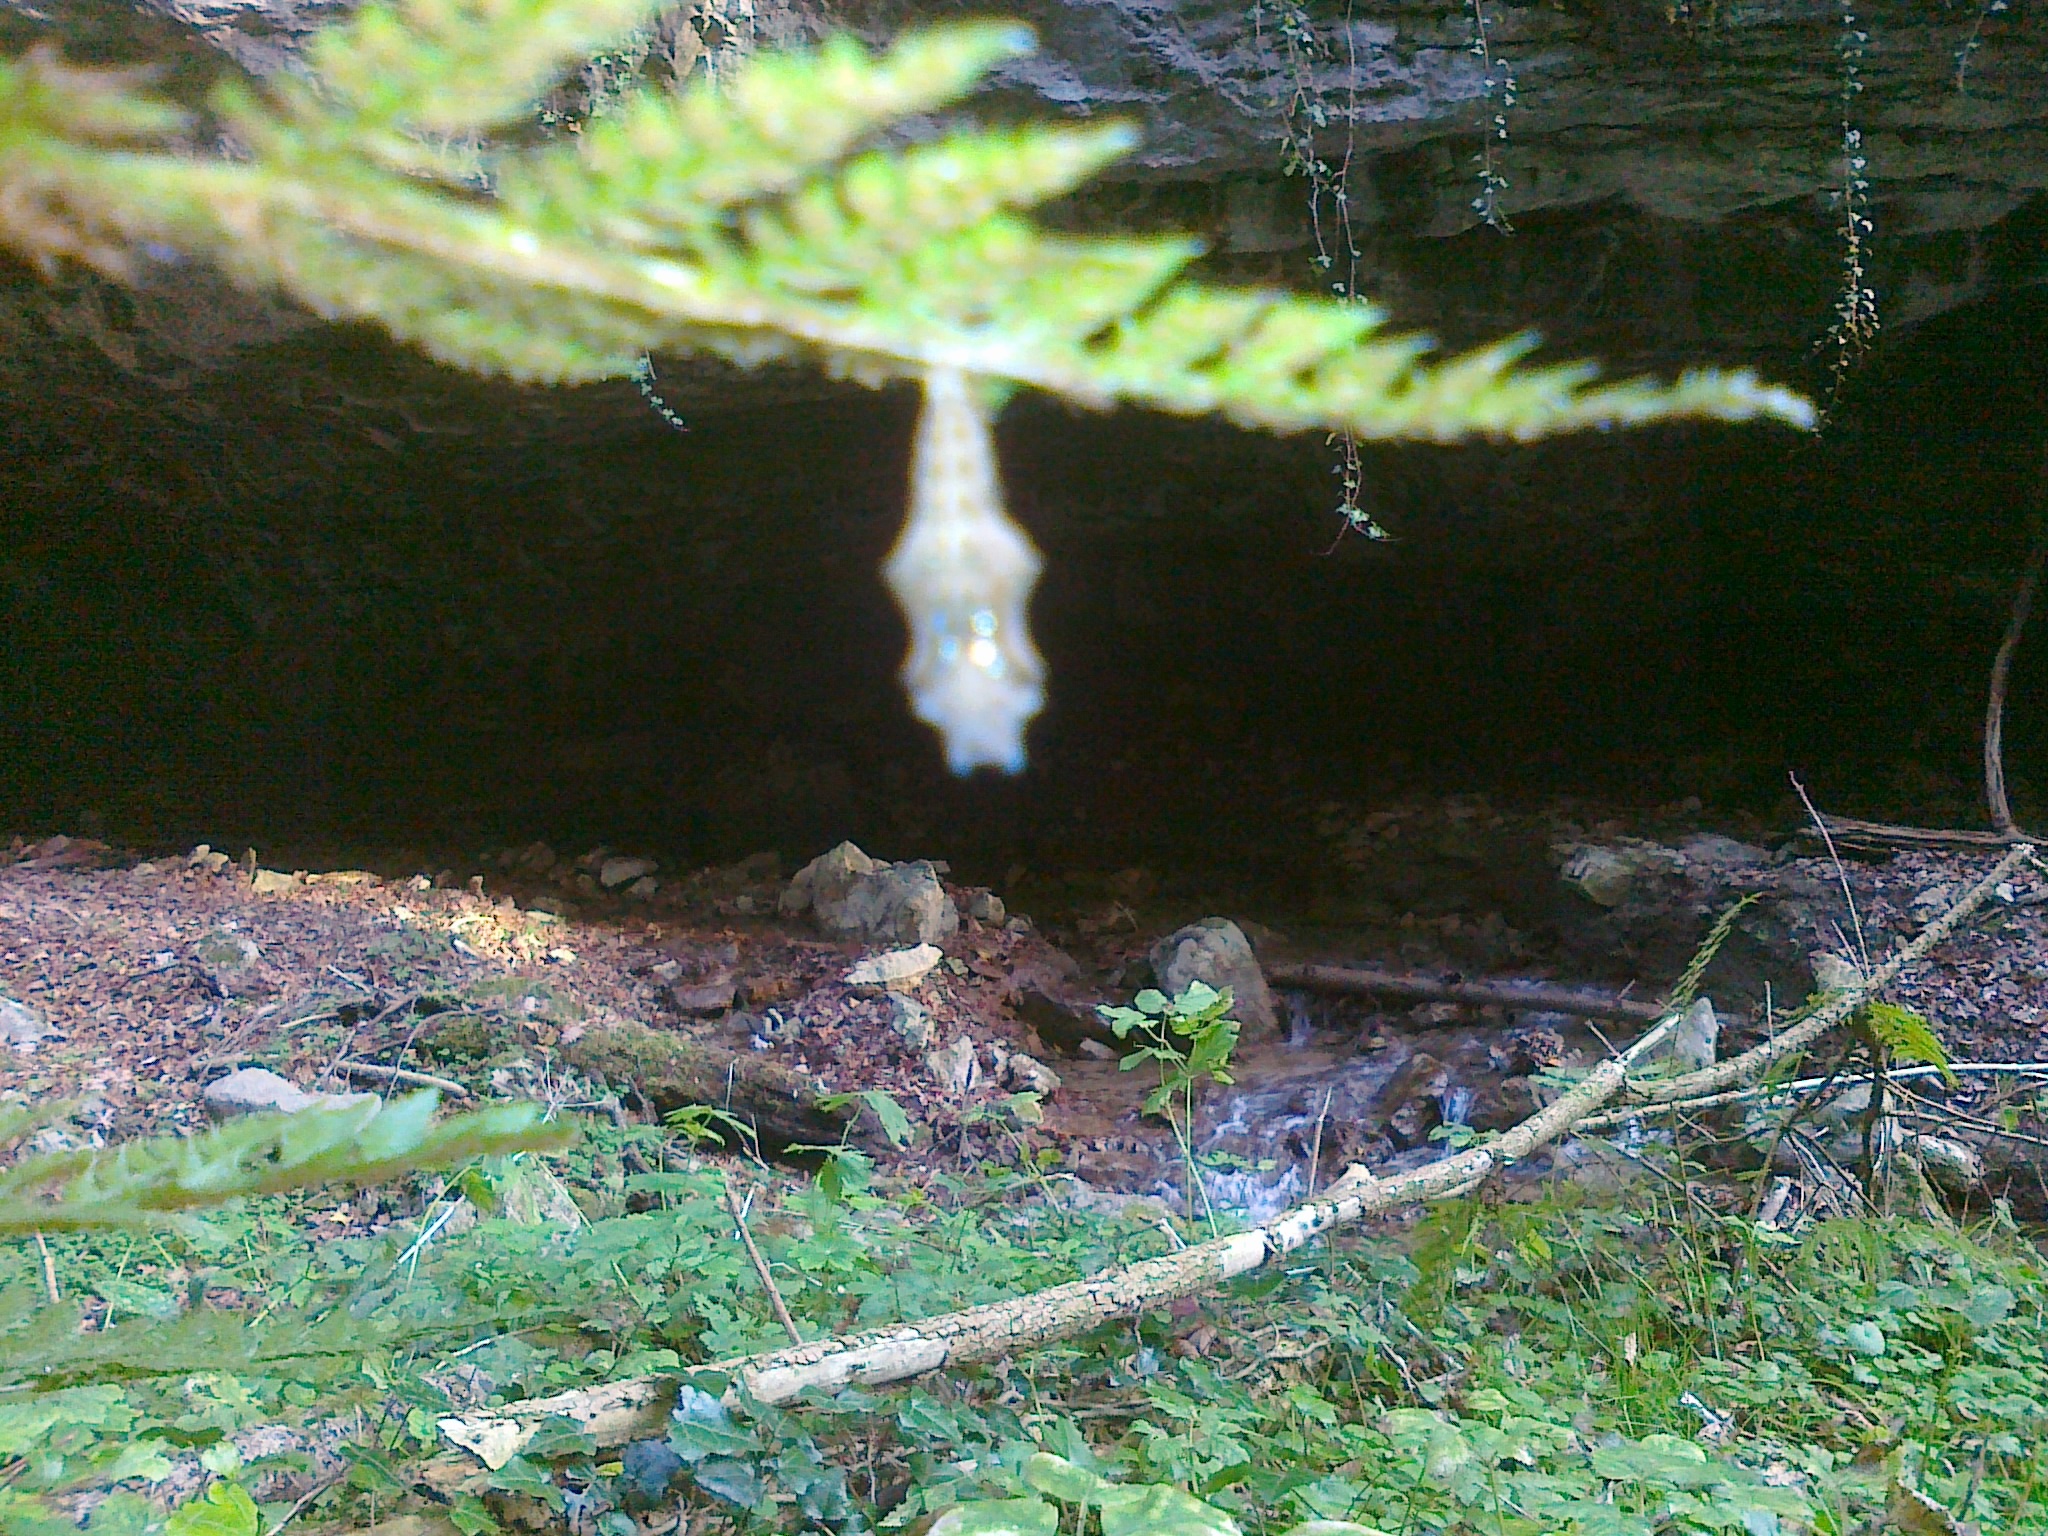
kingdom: Animalia
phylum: Arthropoda
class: Insecta
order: Lepidoptera
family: Nymphalidae
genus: Polygonia
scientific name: Polygonia c-album
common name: Comma
